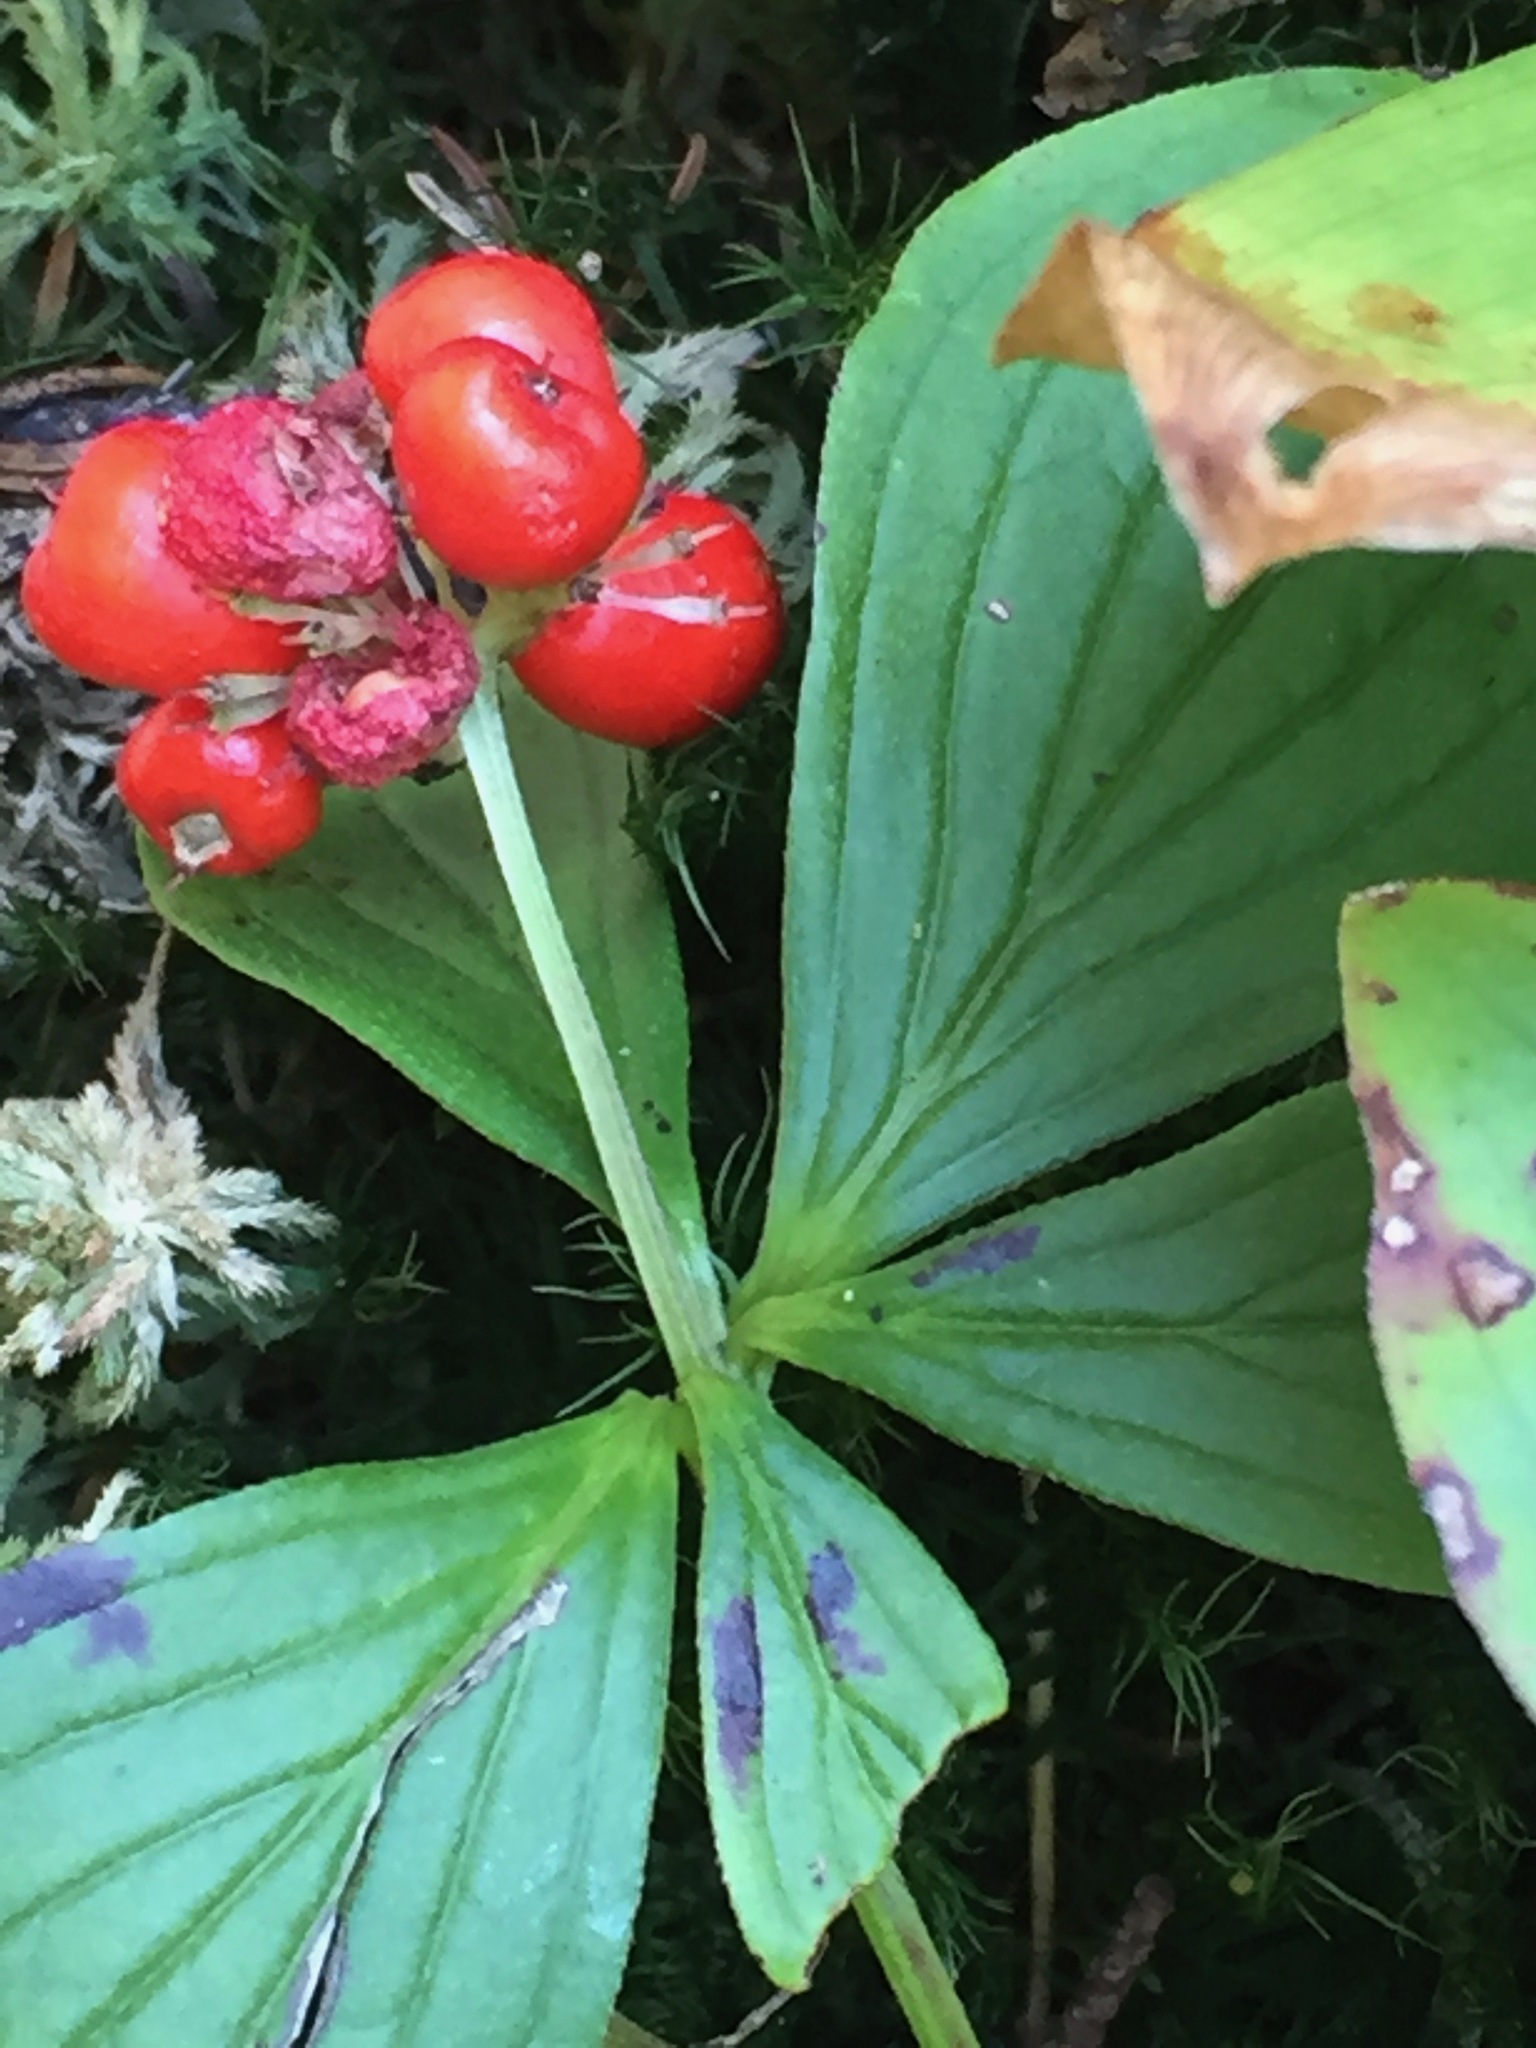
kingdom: Plantae
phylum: Tracheophyta
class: Magnoliopsida
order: Cornales
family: Cornaceae
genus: Cornus
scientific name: Cornus canadensis
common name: Creeping dogwood
